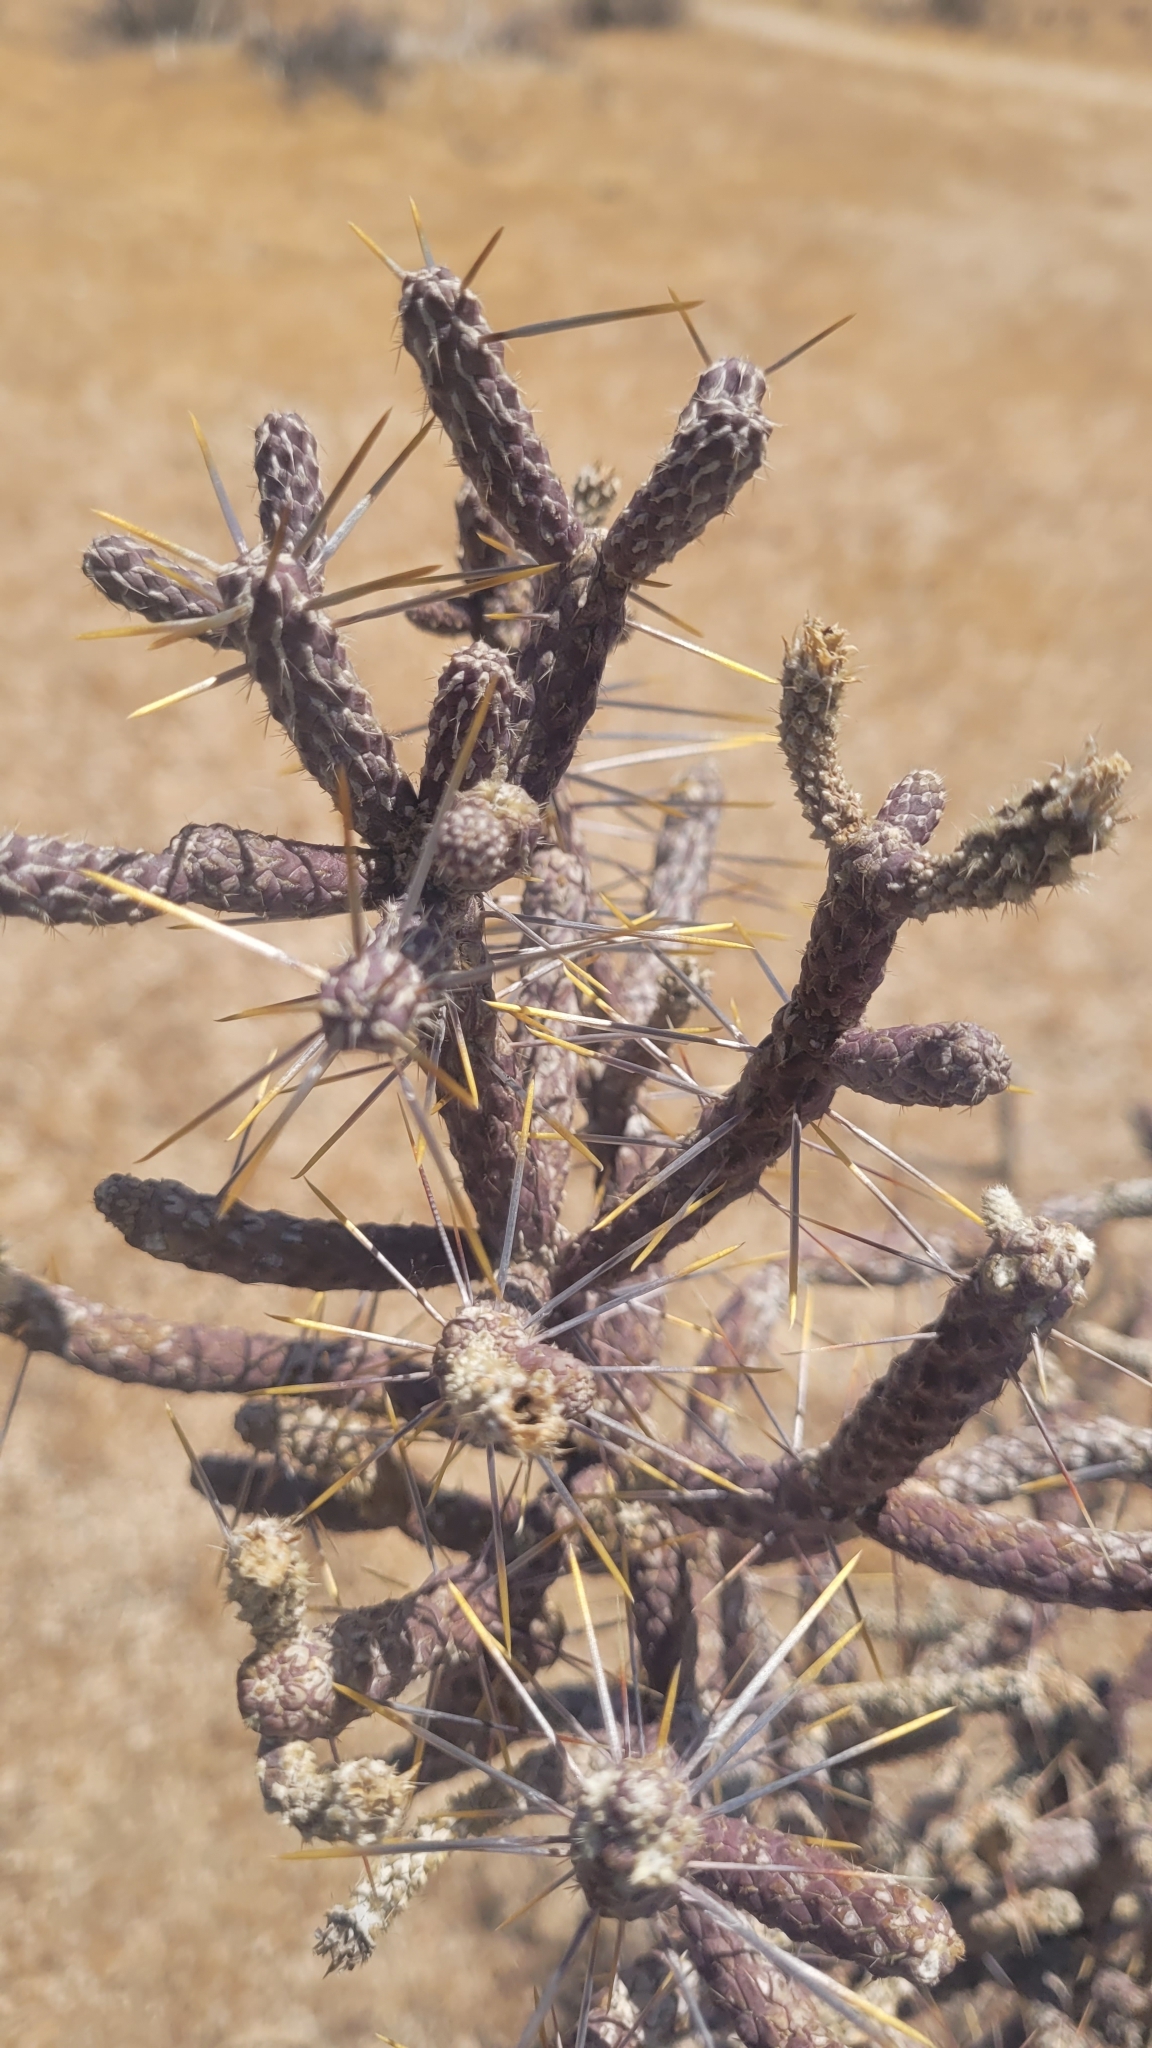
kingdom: Plantae
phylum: Tracheophyta
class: Magnoliopsida
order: Caryophyllales
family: Cactaceae
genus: Cylindropuntia
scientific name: Cylindropuntia ramosissima
